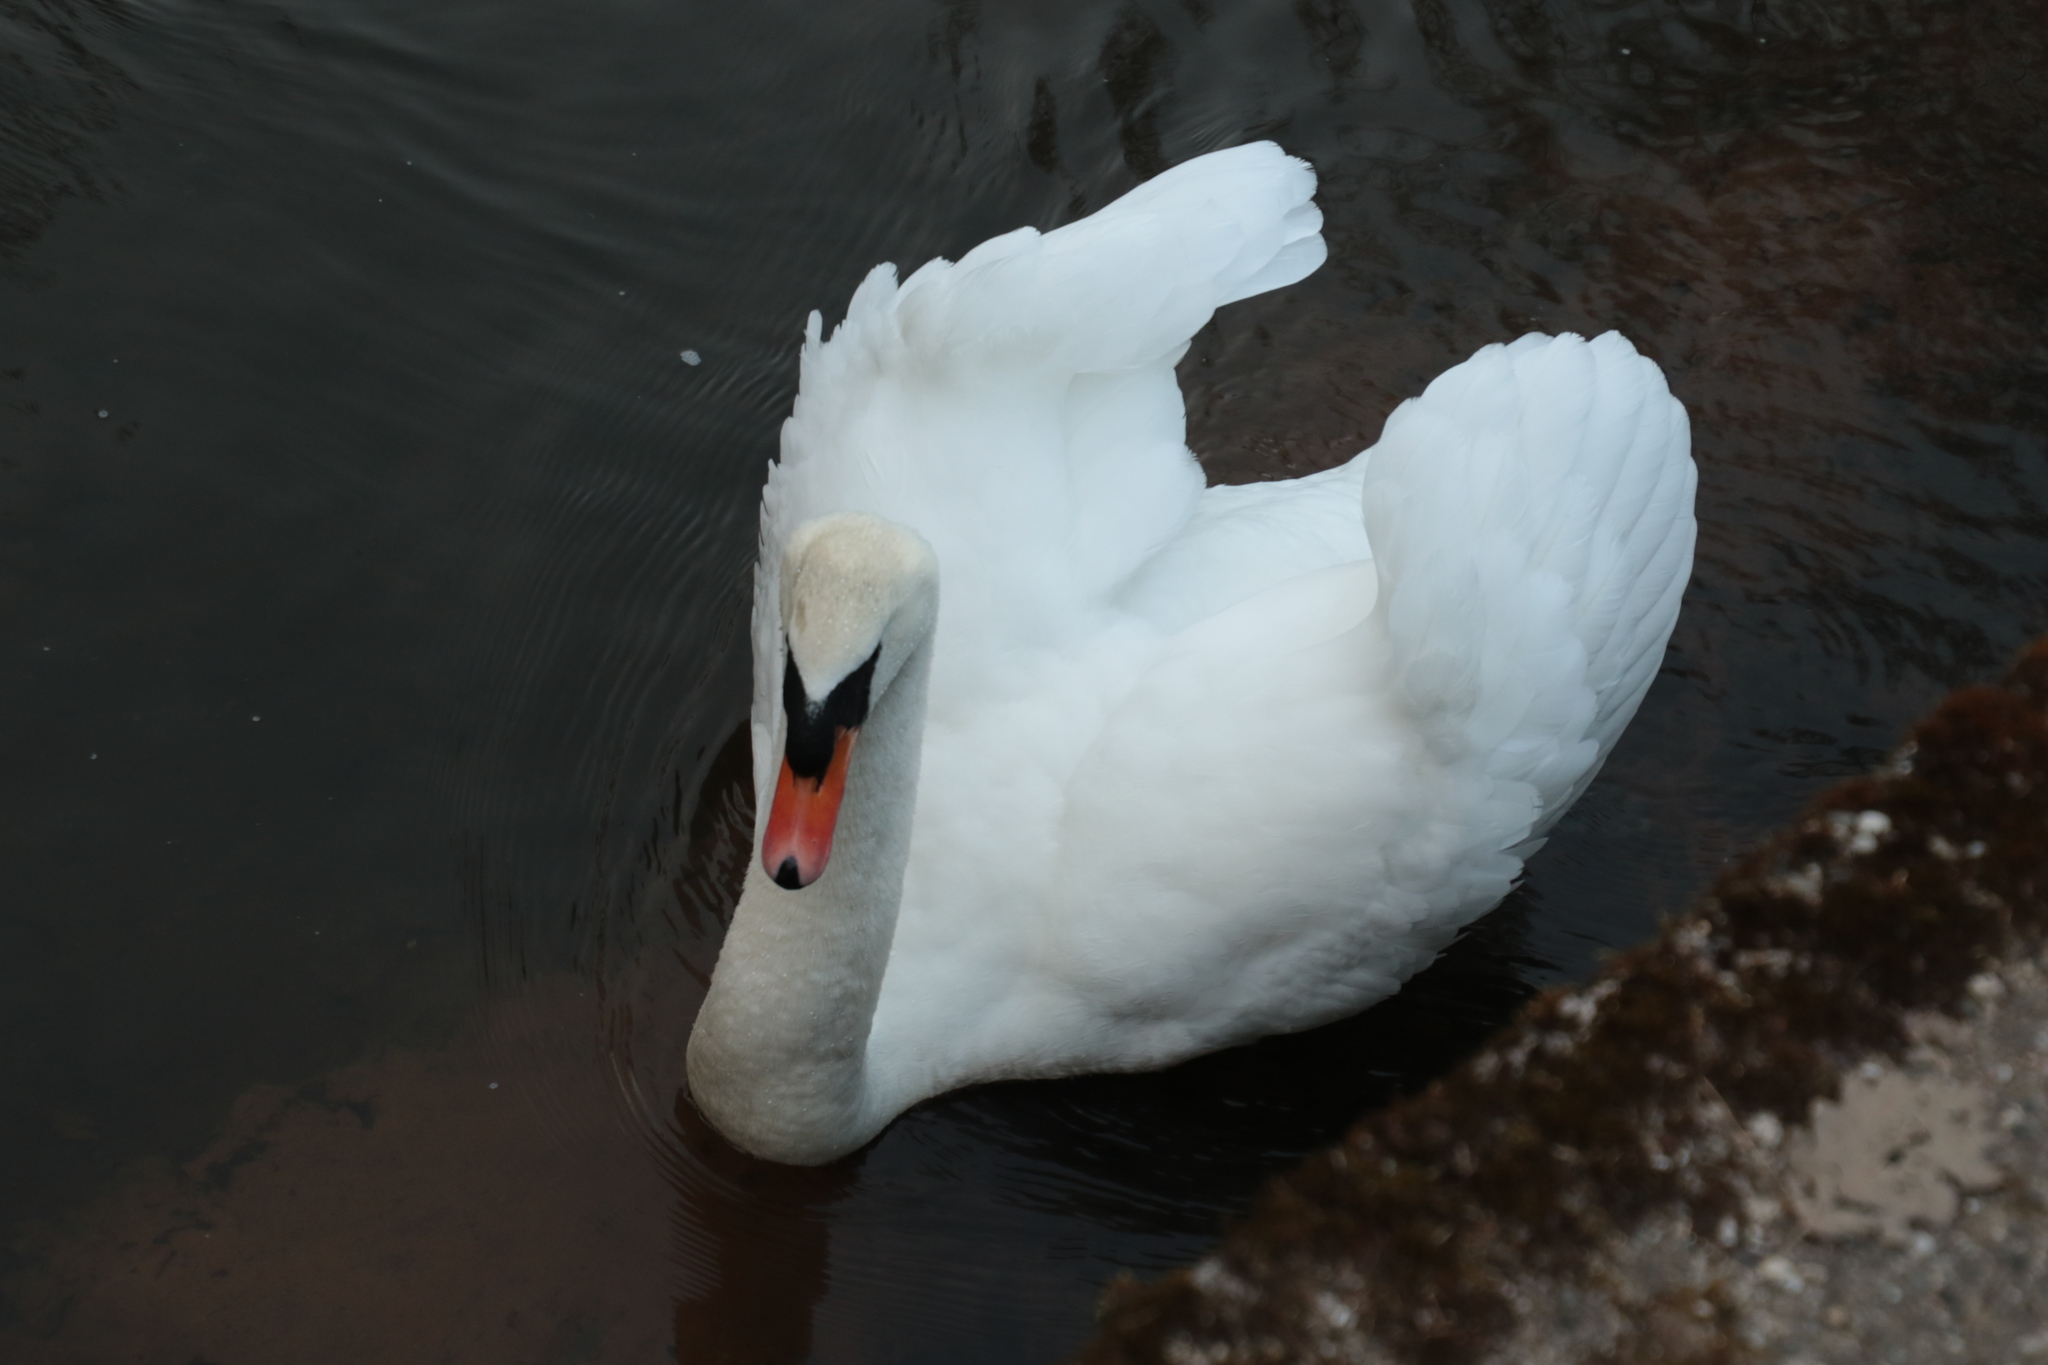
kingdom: Animalia
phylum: Chordata
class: Aves
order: Anseriformes
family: Anatidae
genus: Cygnus
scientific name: Cygnus olor
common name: Mute swan
